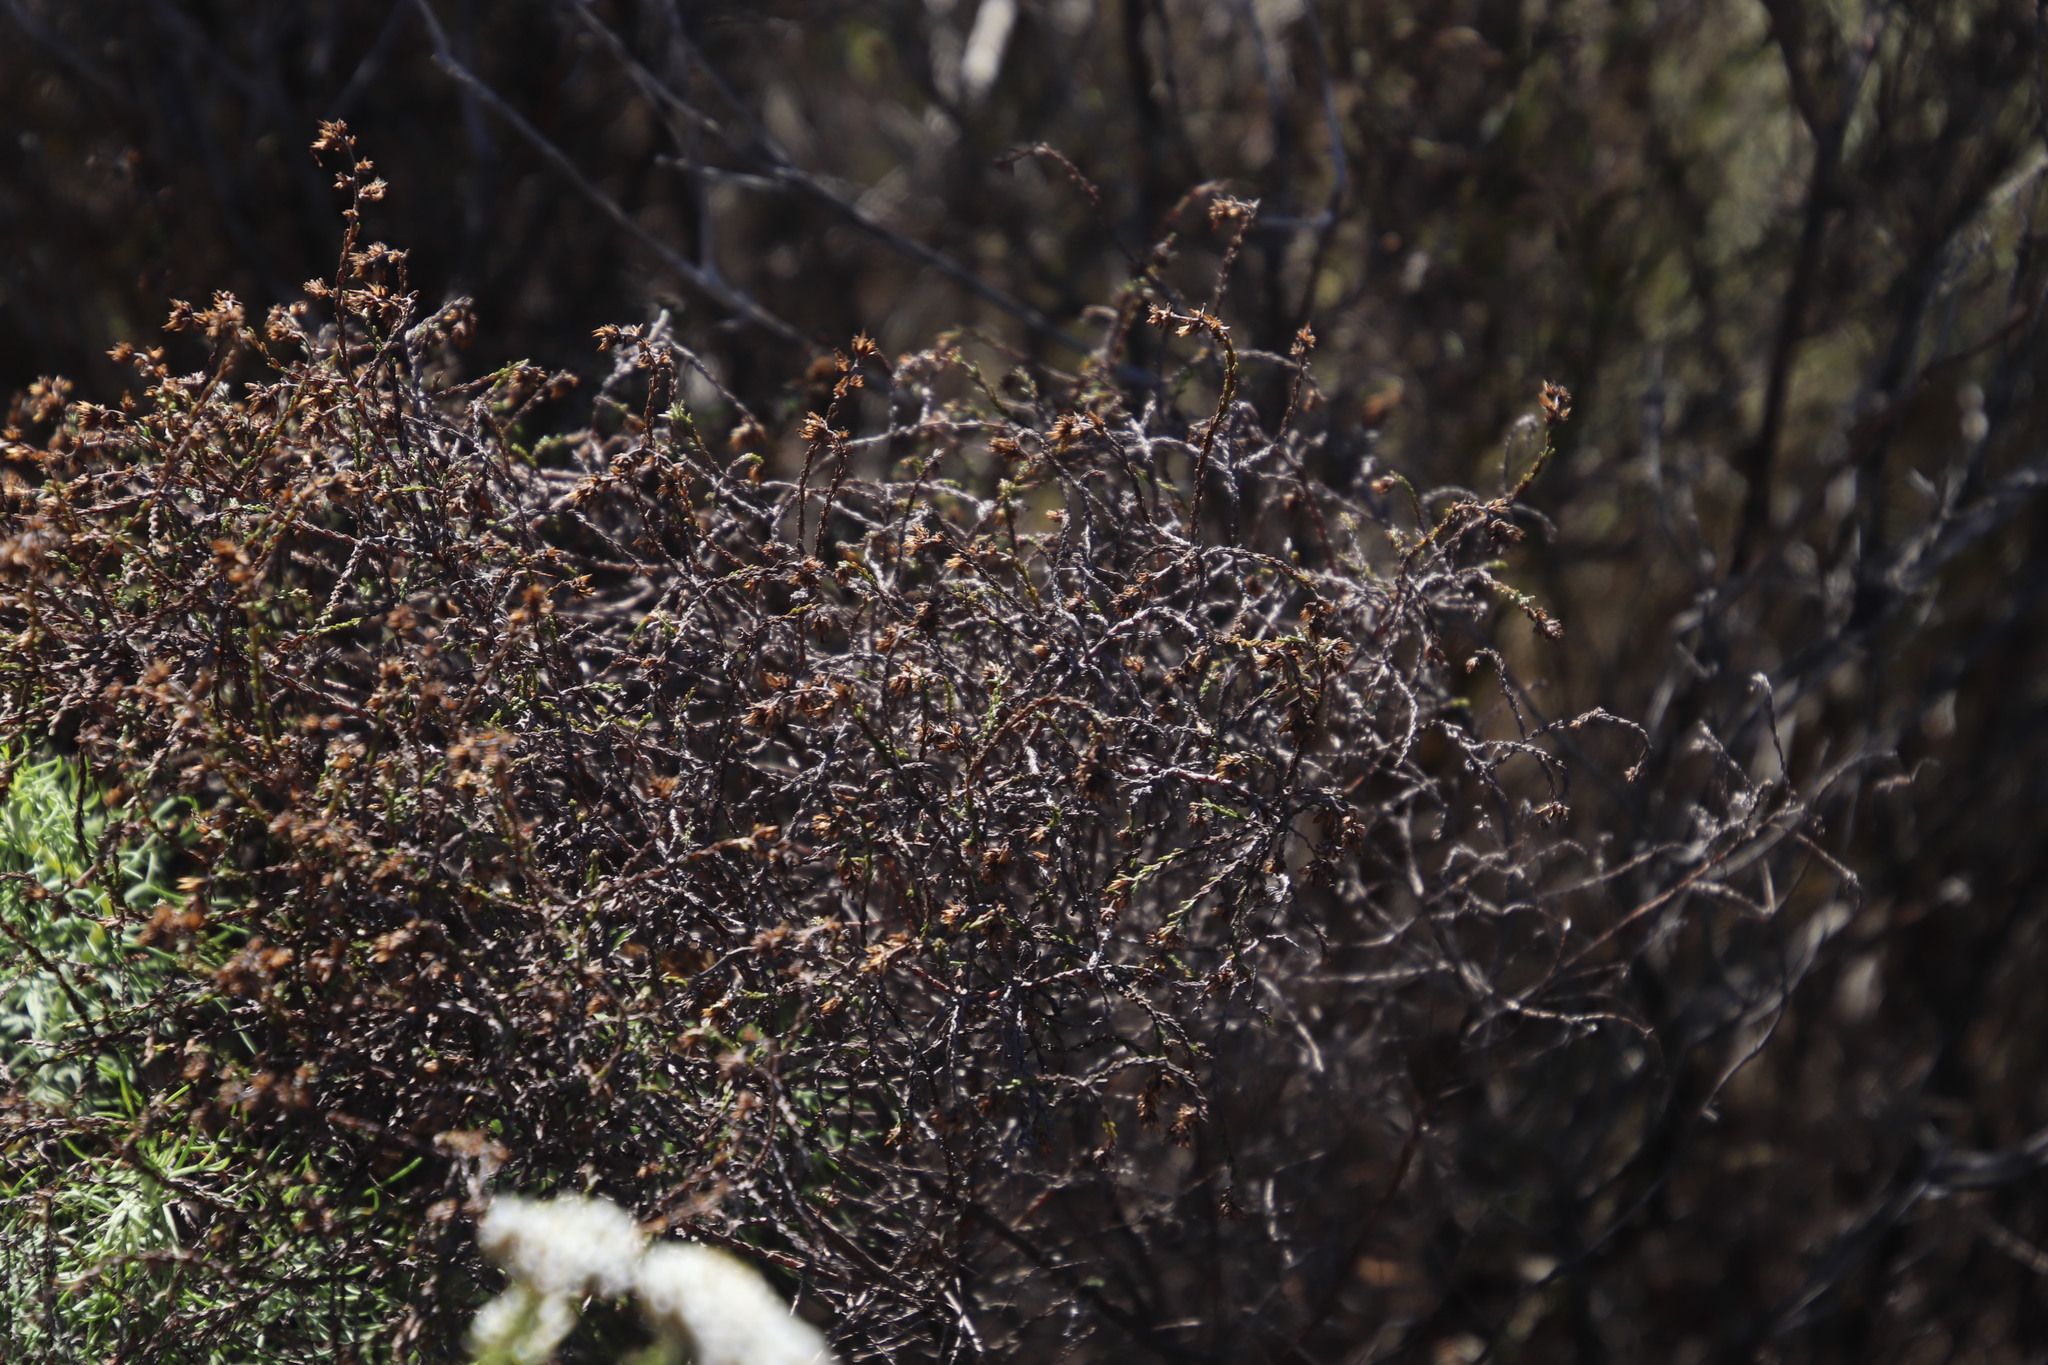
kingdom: Plantae
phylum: Tracheophyta
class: Magnoliopsida
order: Asterales
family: Asteraceae
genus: Myrovernix
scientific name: Myrovernix gnaphaloides
